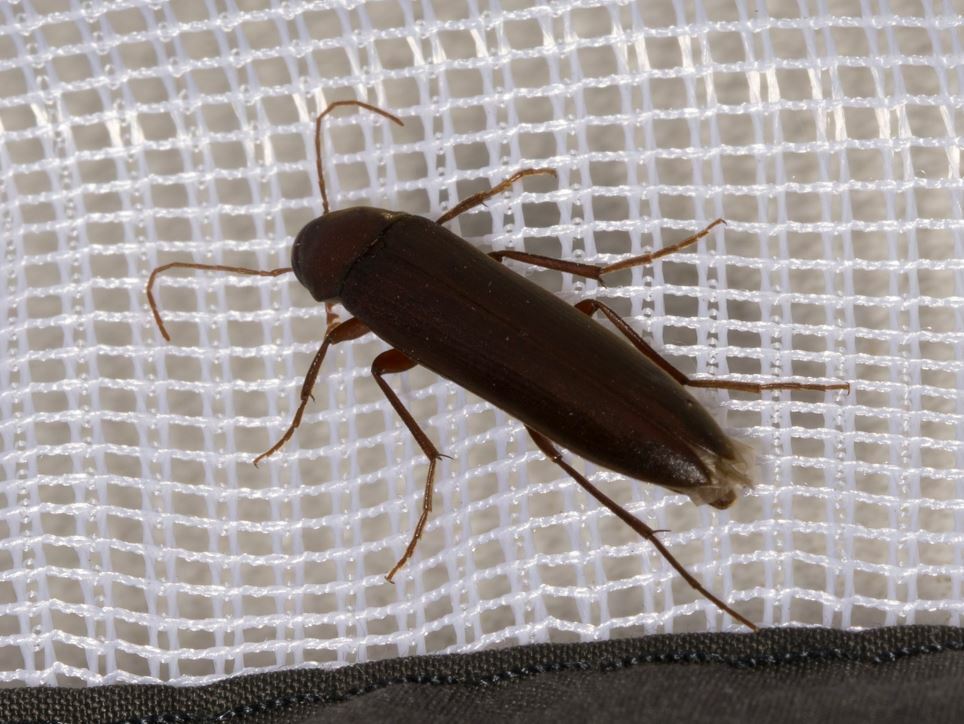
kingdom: Animalia
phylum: Arthropoda
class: Insecta
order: Coleoptera
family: Melandryidae
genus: Serropalpus
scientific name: Serropalpus barbatus
